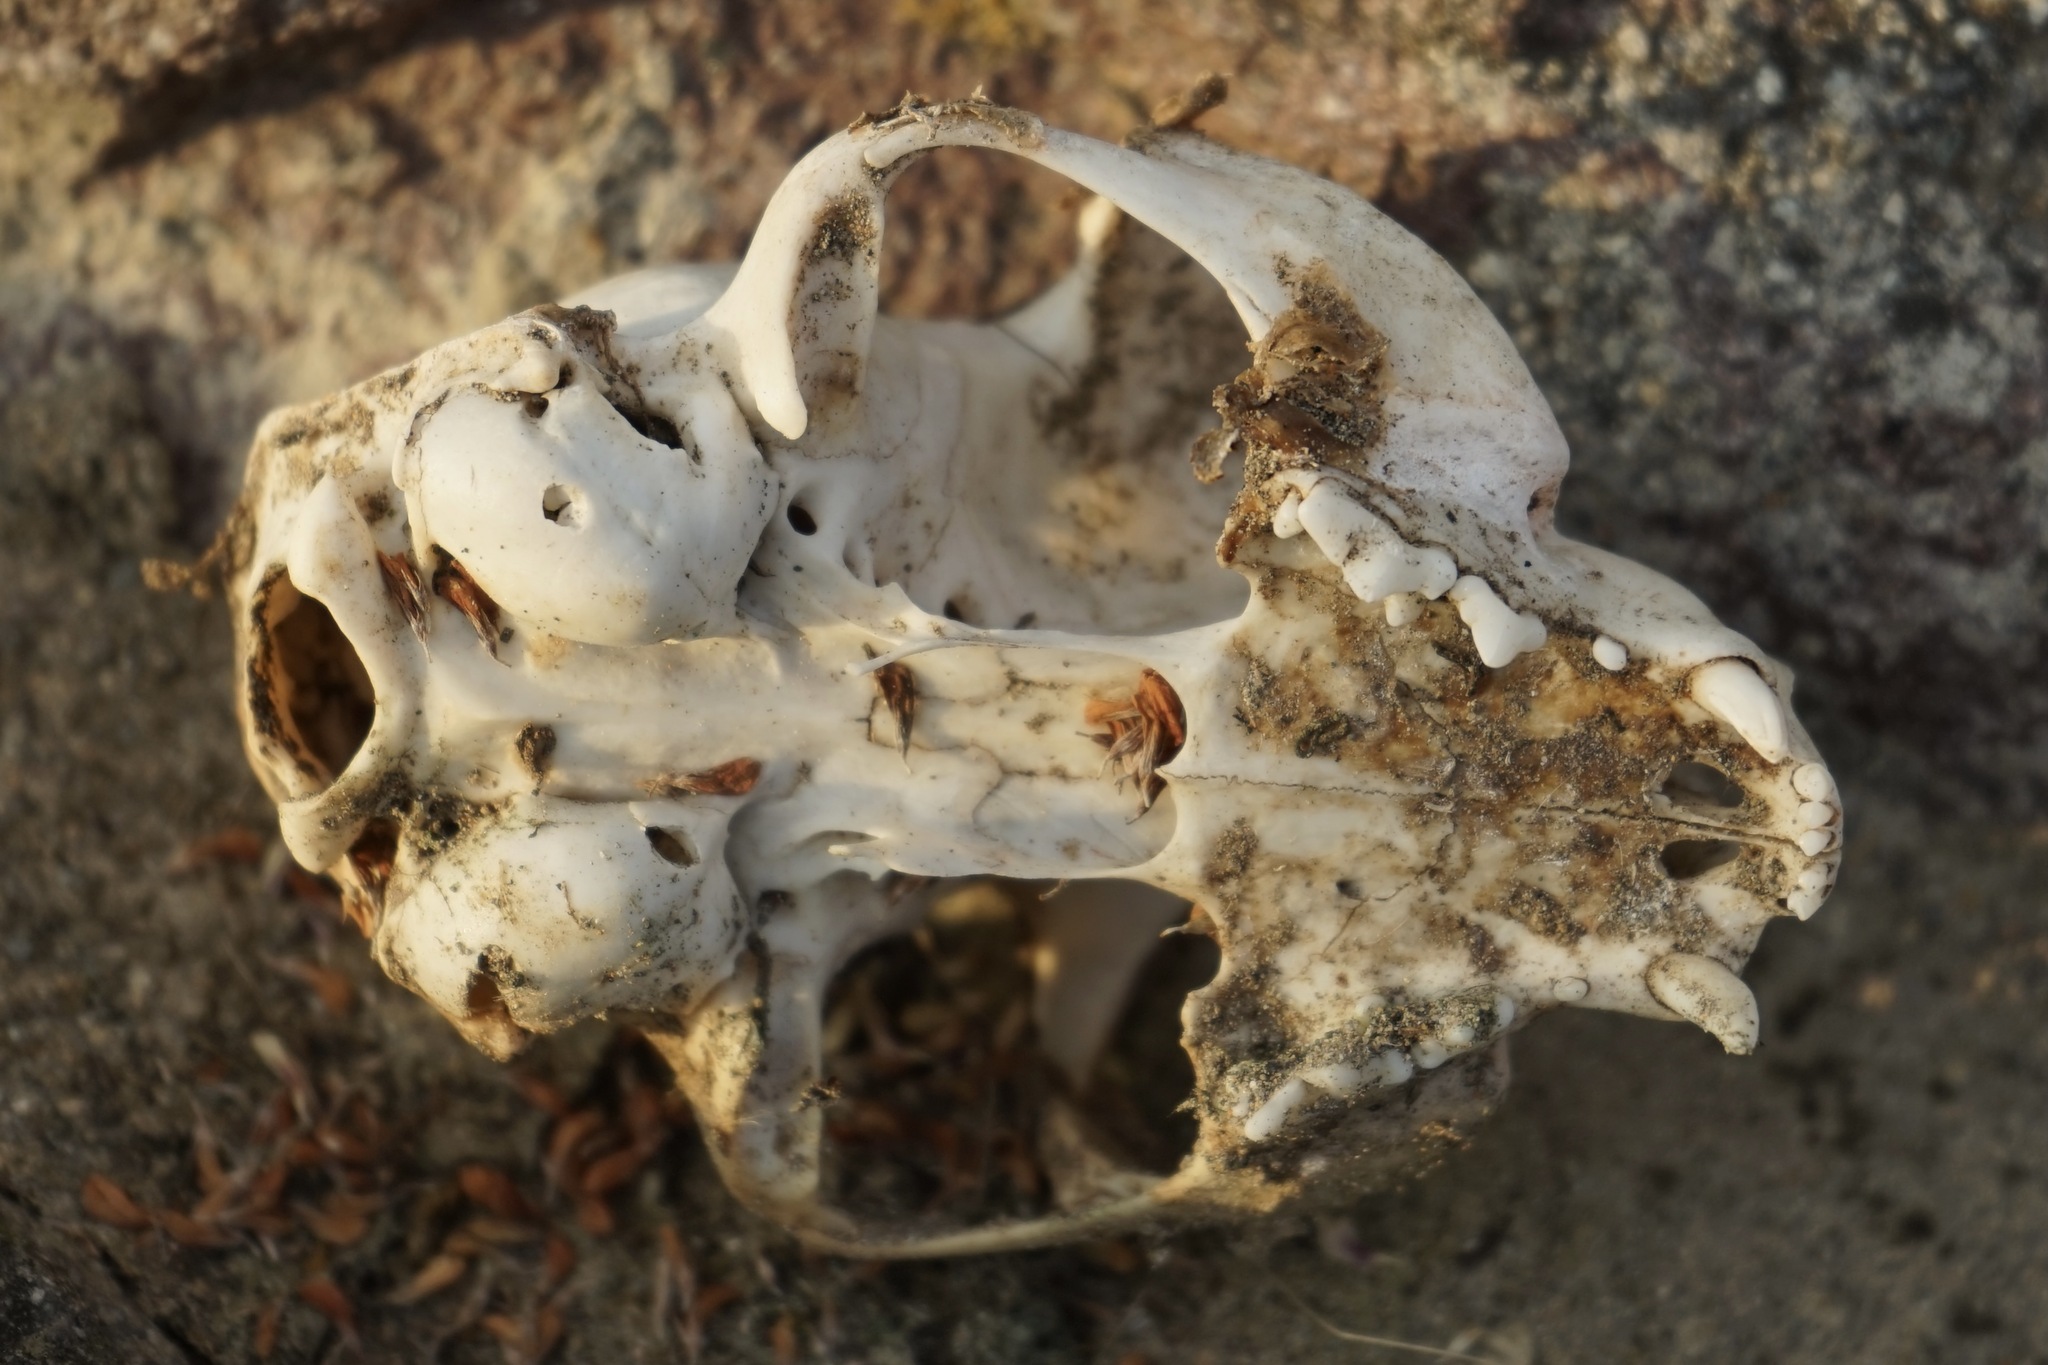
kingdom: Animalia
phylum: Chordata
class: Mammalia
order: Carnivora
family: Felidae
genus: Felis
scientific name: Felis catus
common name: Domestic cat
